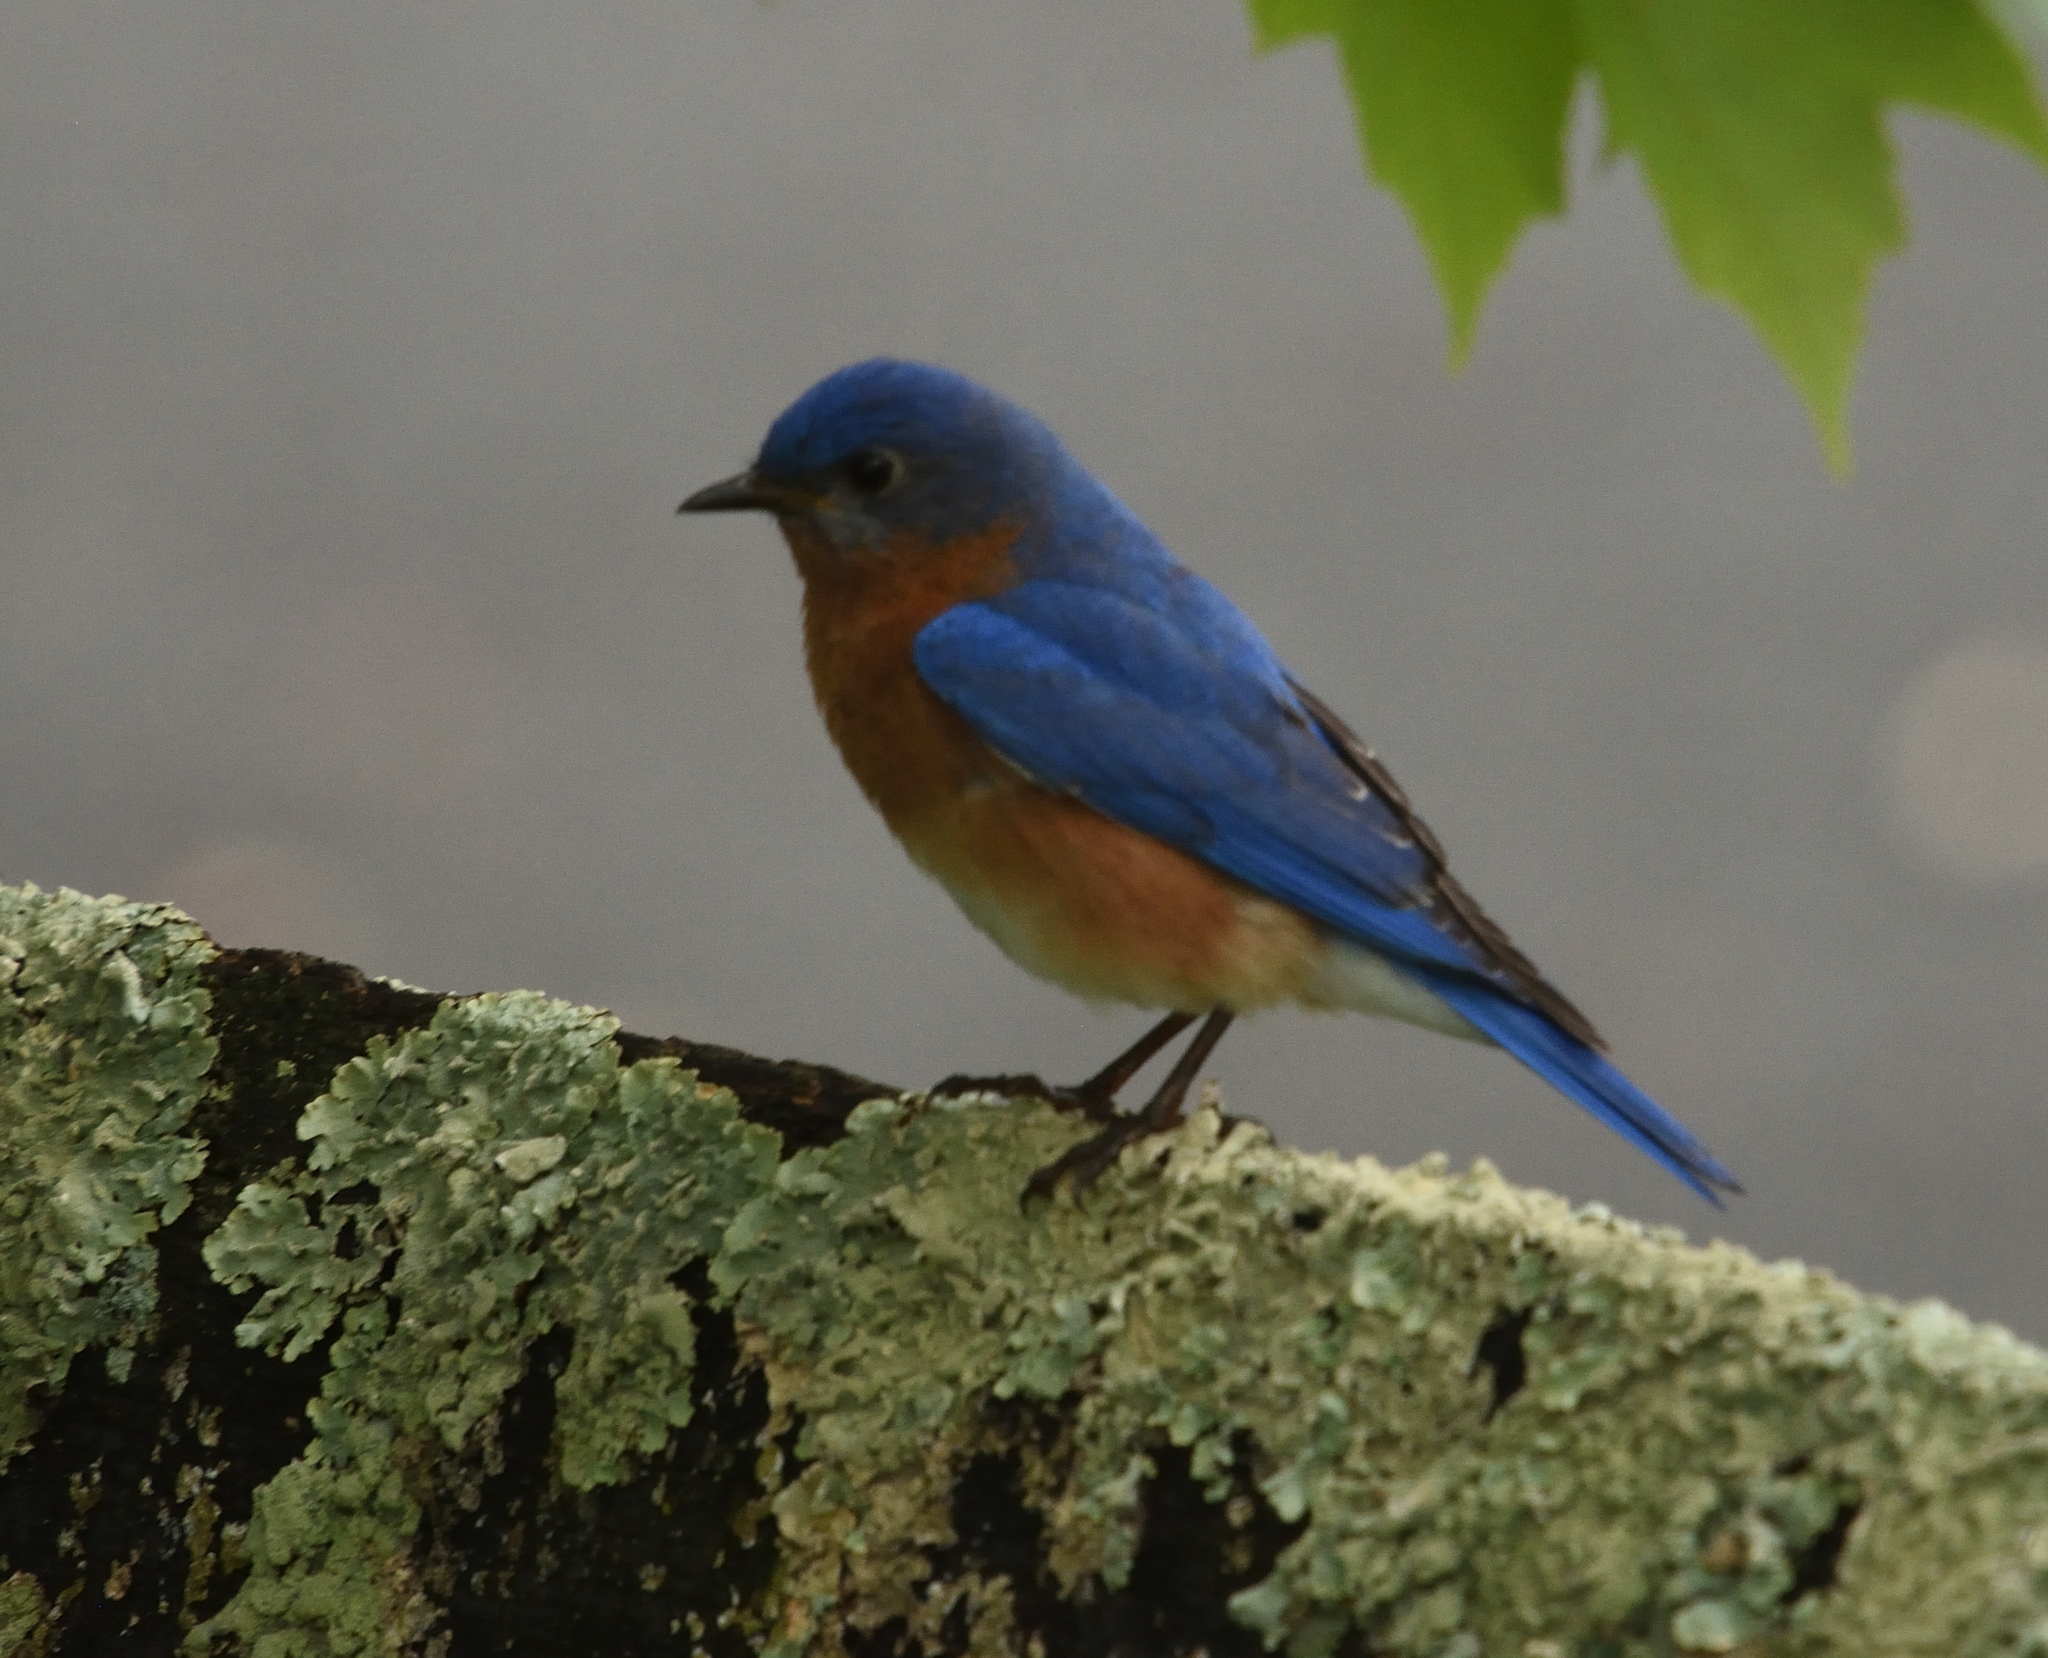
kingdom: Animalia
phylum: Chordata
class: Aves
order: Passeriformes
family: Turdidae
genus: Sialia
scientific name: Sialia sialis
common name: Eastern bluebird
